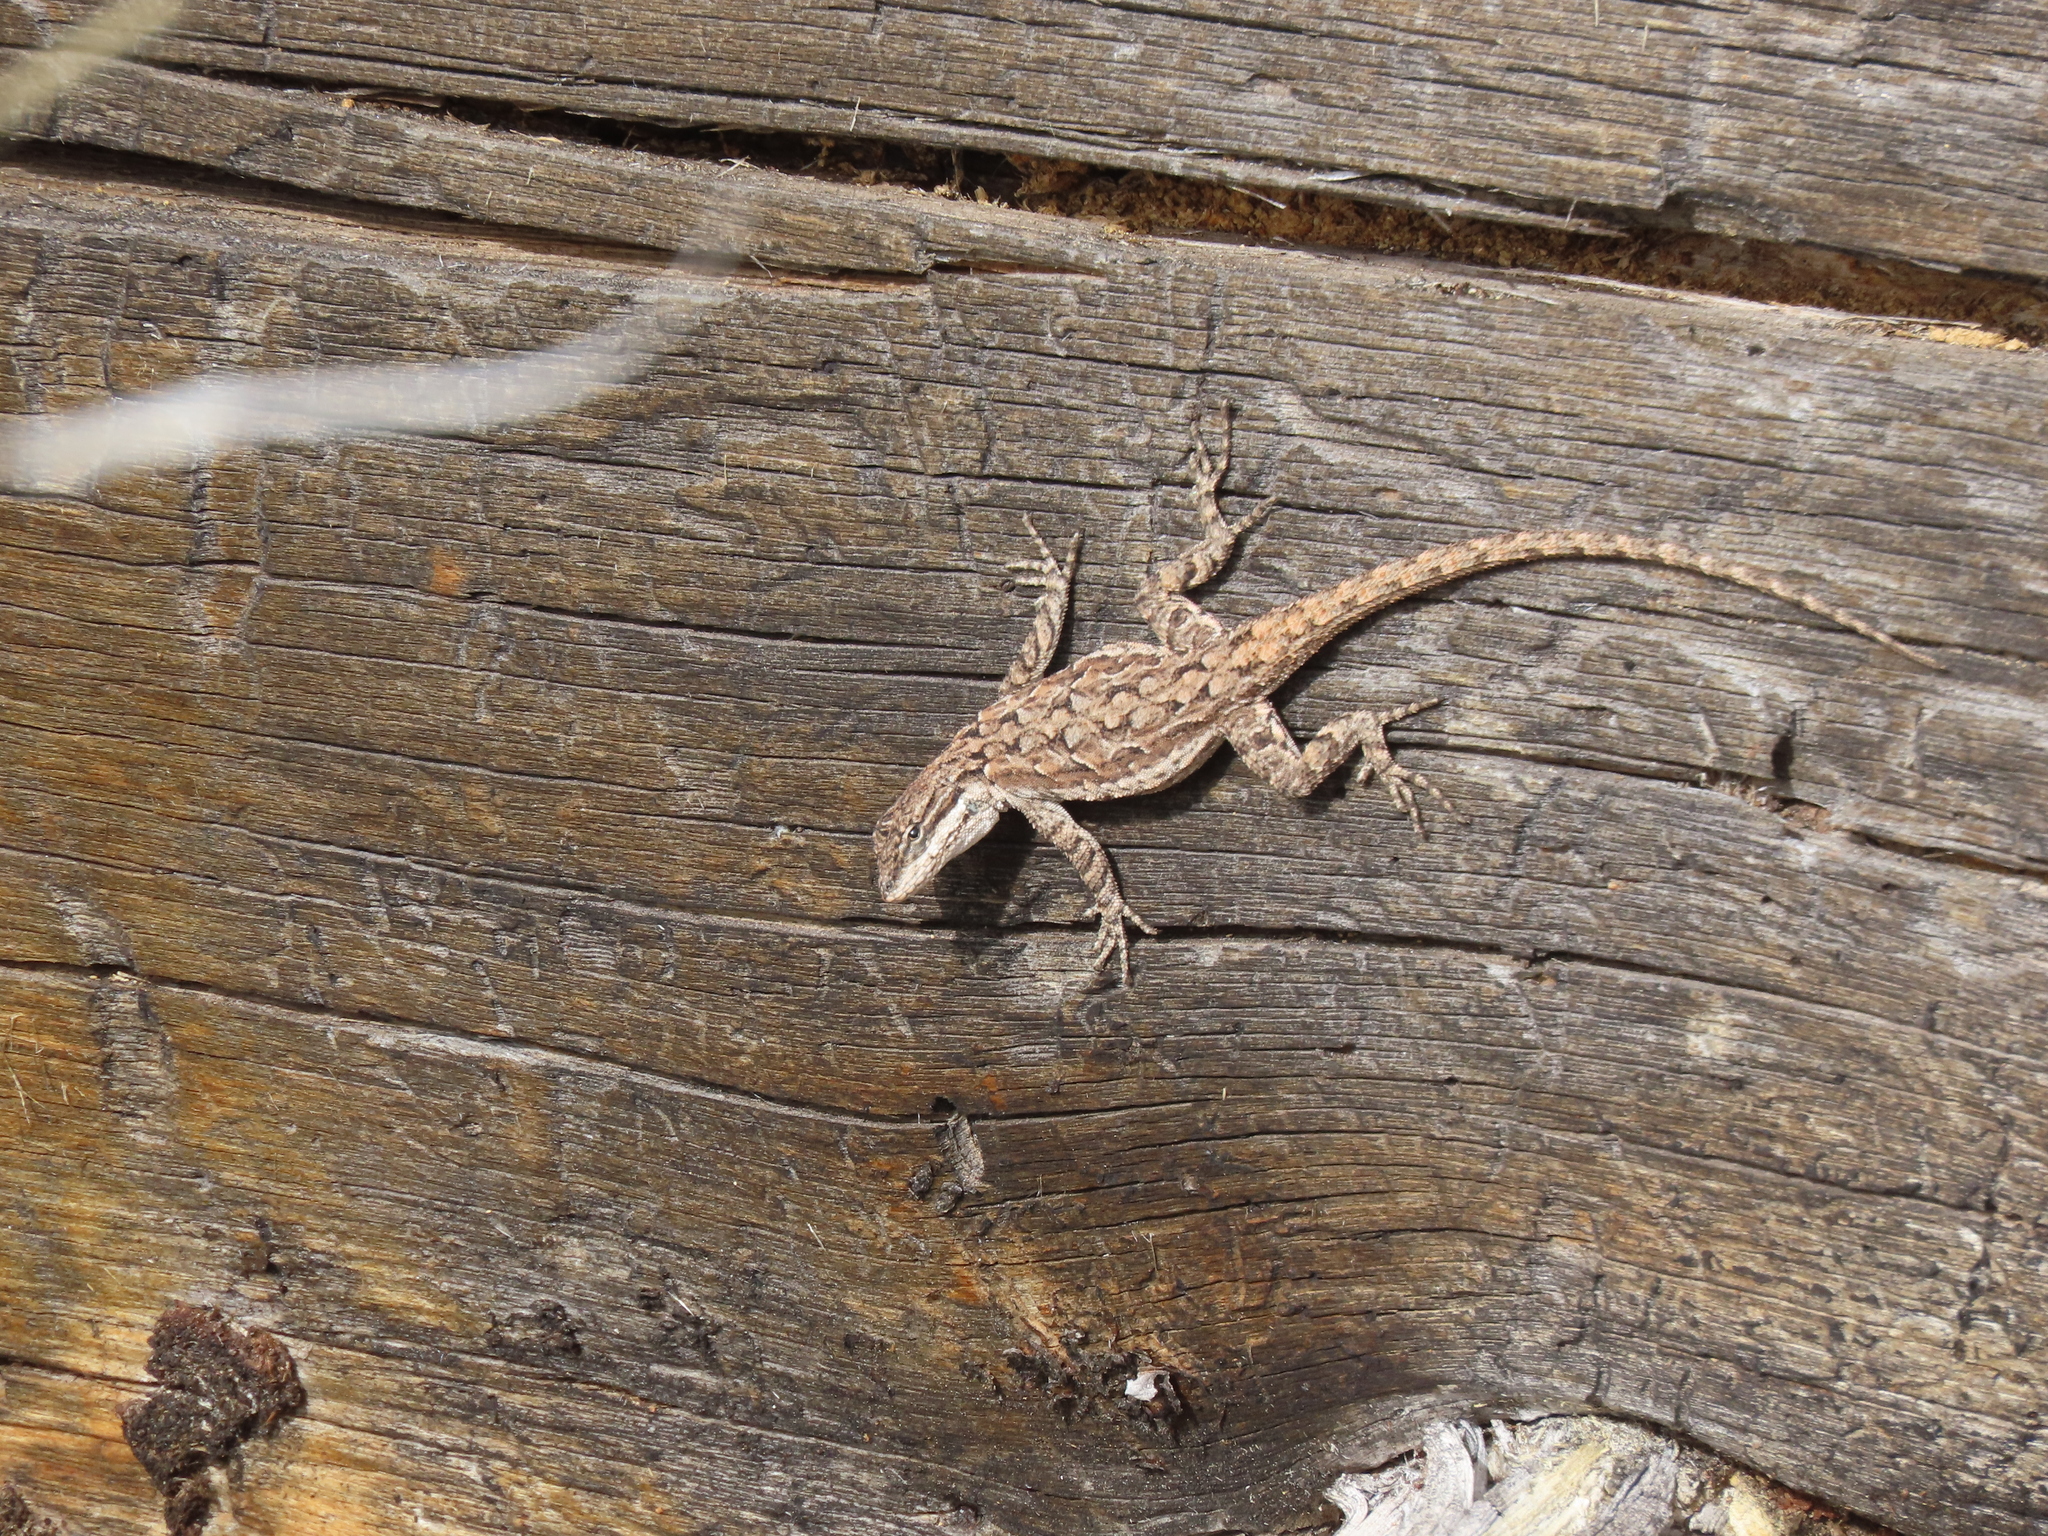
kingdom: Animalia
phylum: Chordata
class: Squamata
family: Phrynosomatidae
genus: Urosaurus
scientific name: Urosaurus ornatus
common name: Ornate tree lizard
